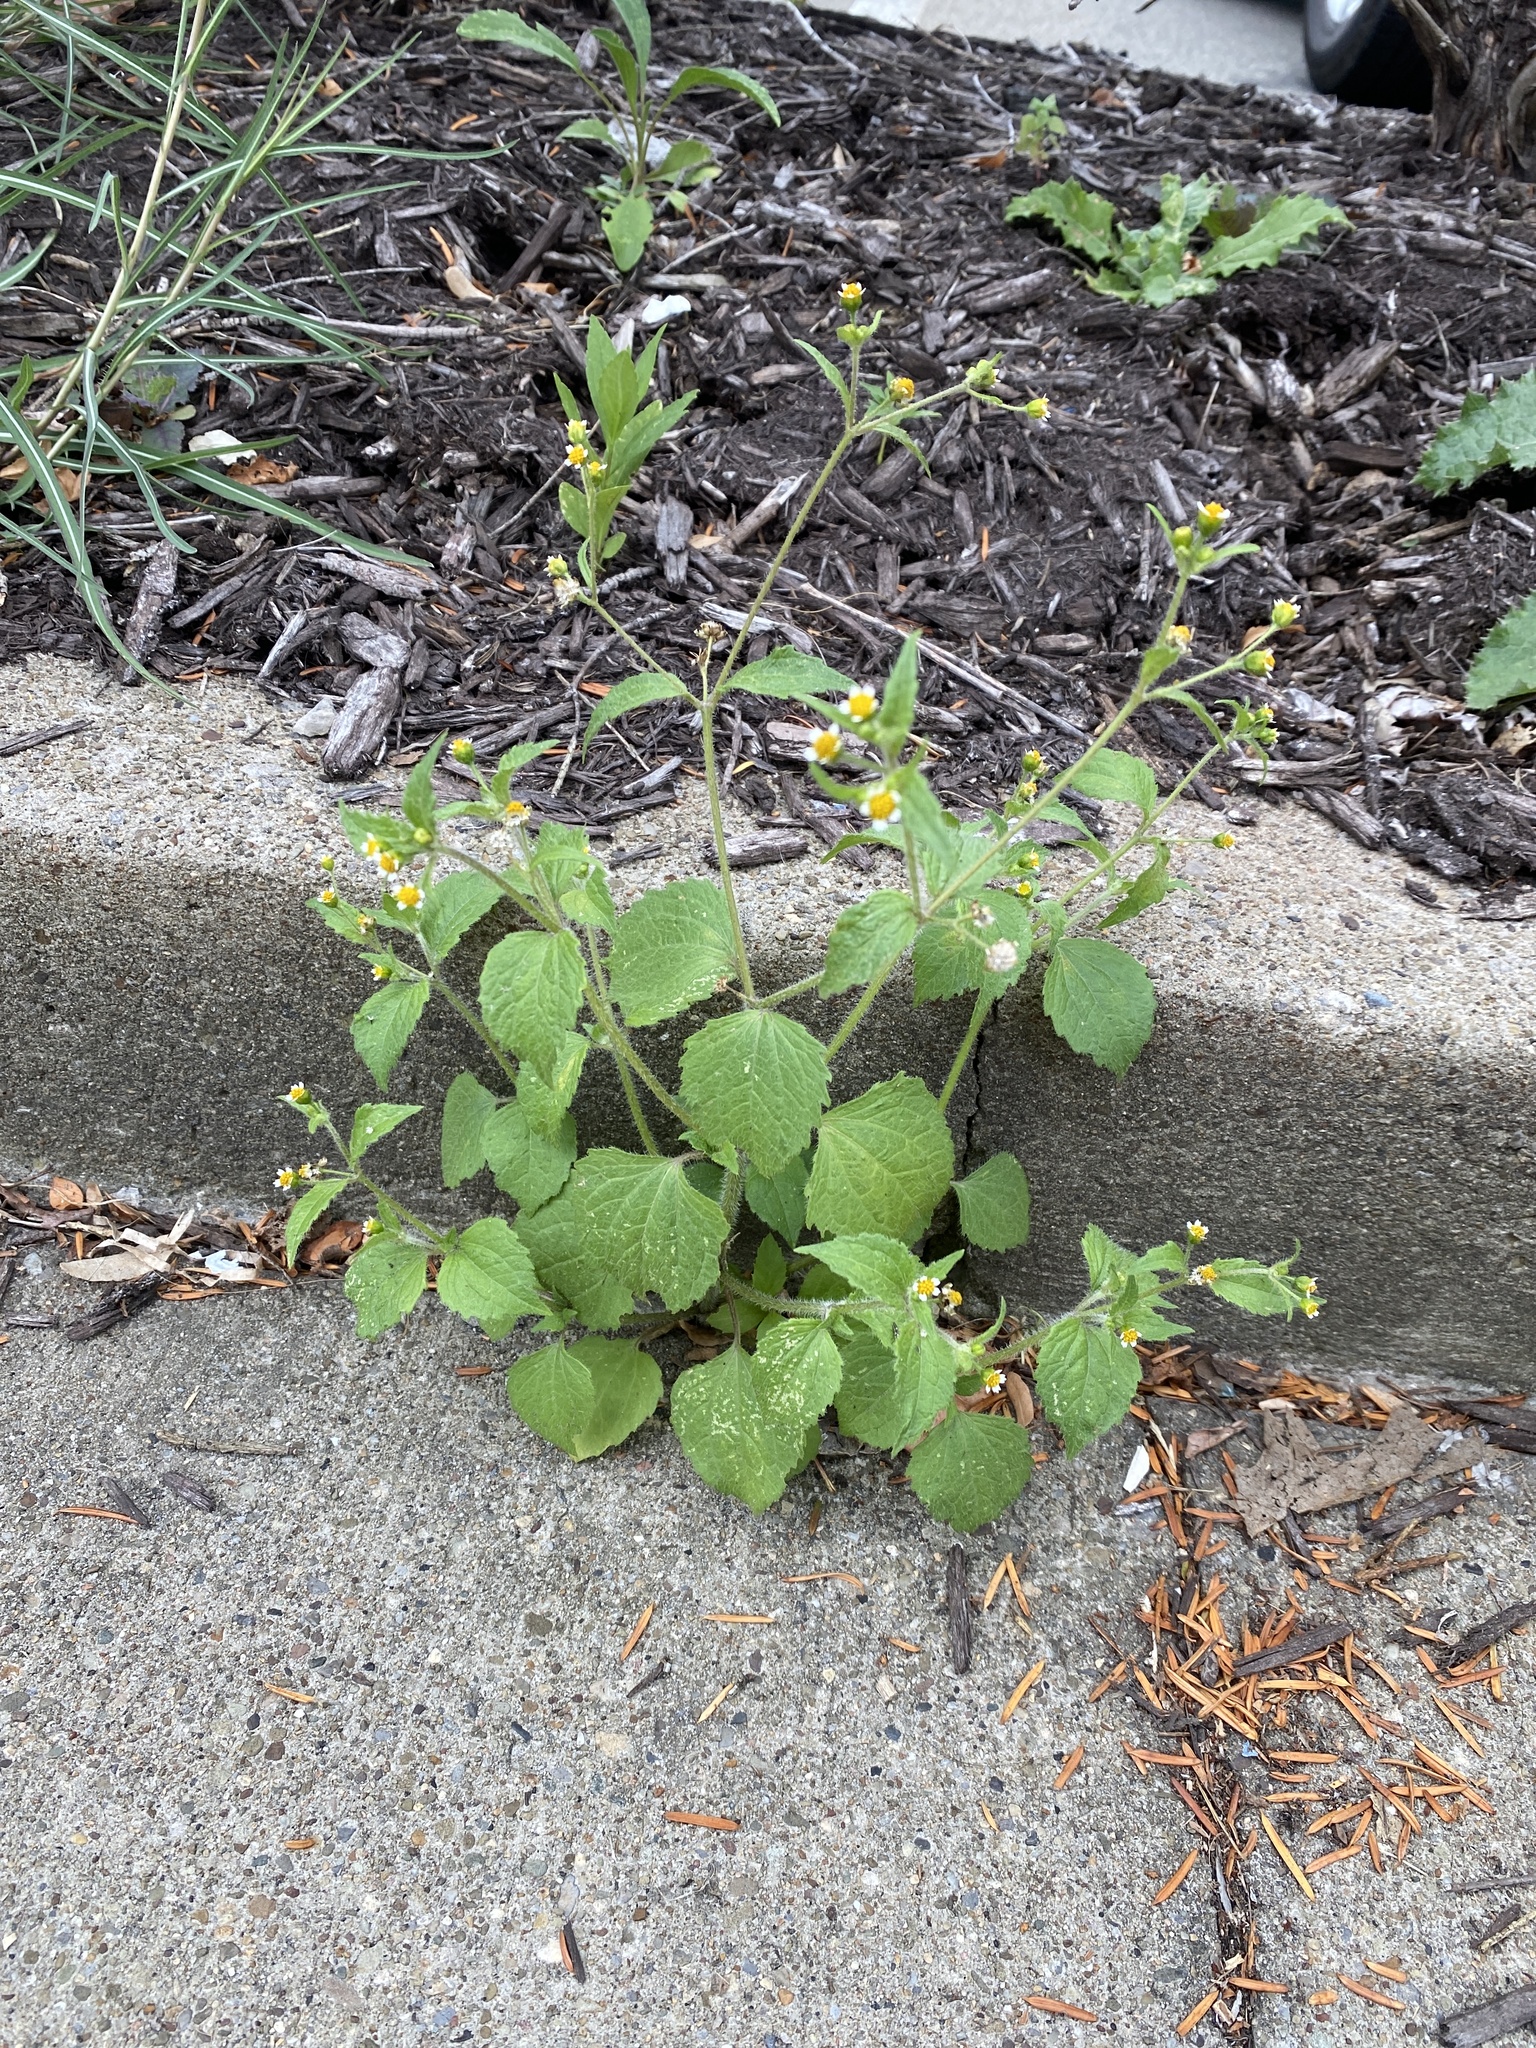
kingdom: Plantae
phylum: Tracheophyta
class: Magnoliopsida
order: Asterales
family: Asteraceae
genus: Galinsoga
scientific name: Galinsoga quadriradiata
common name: Shaggy soldier
